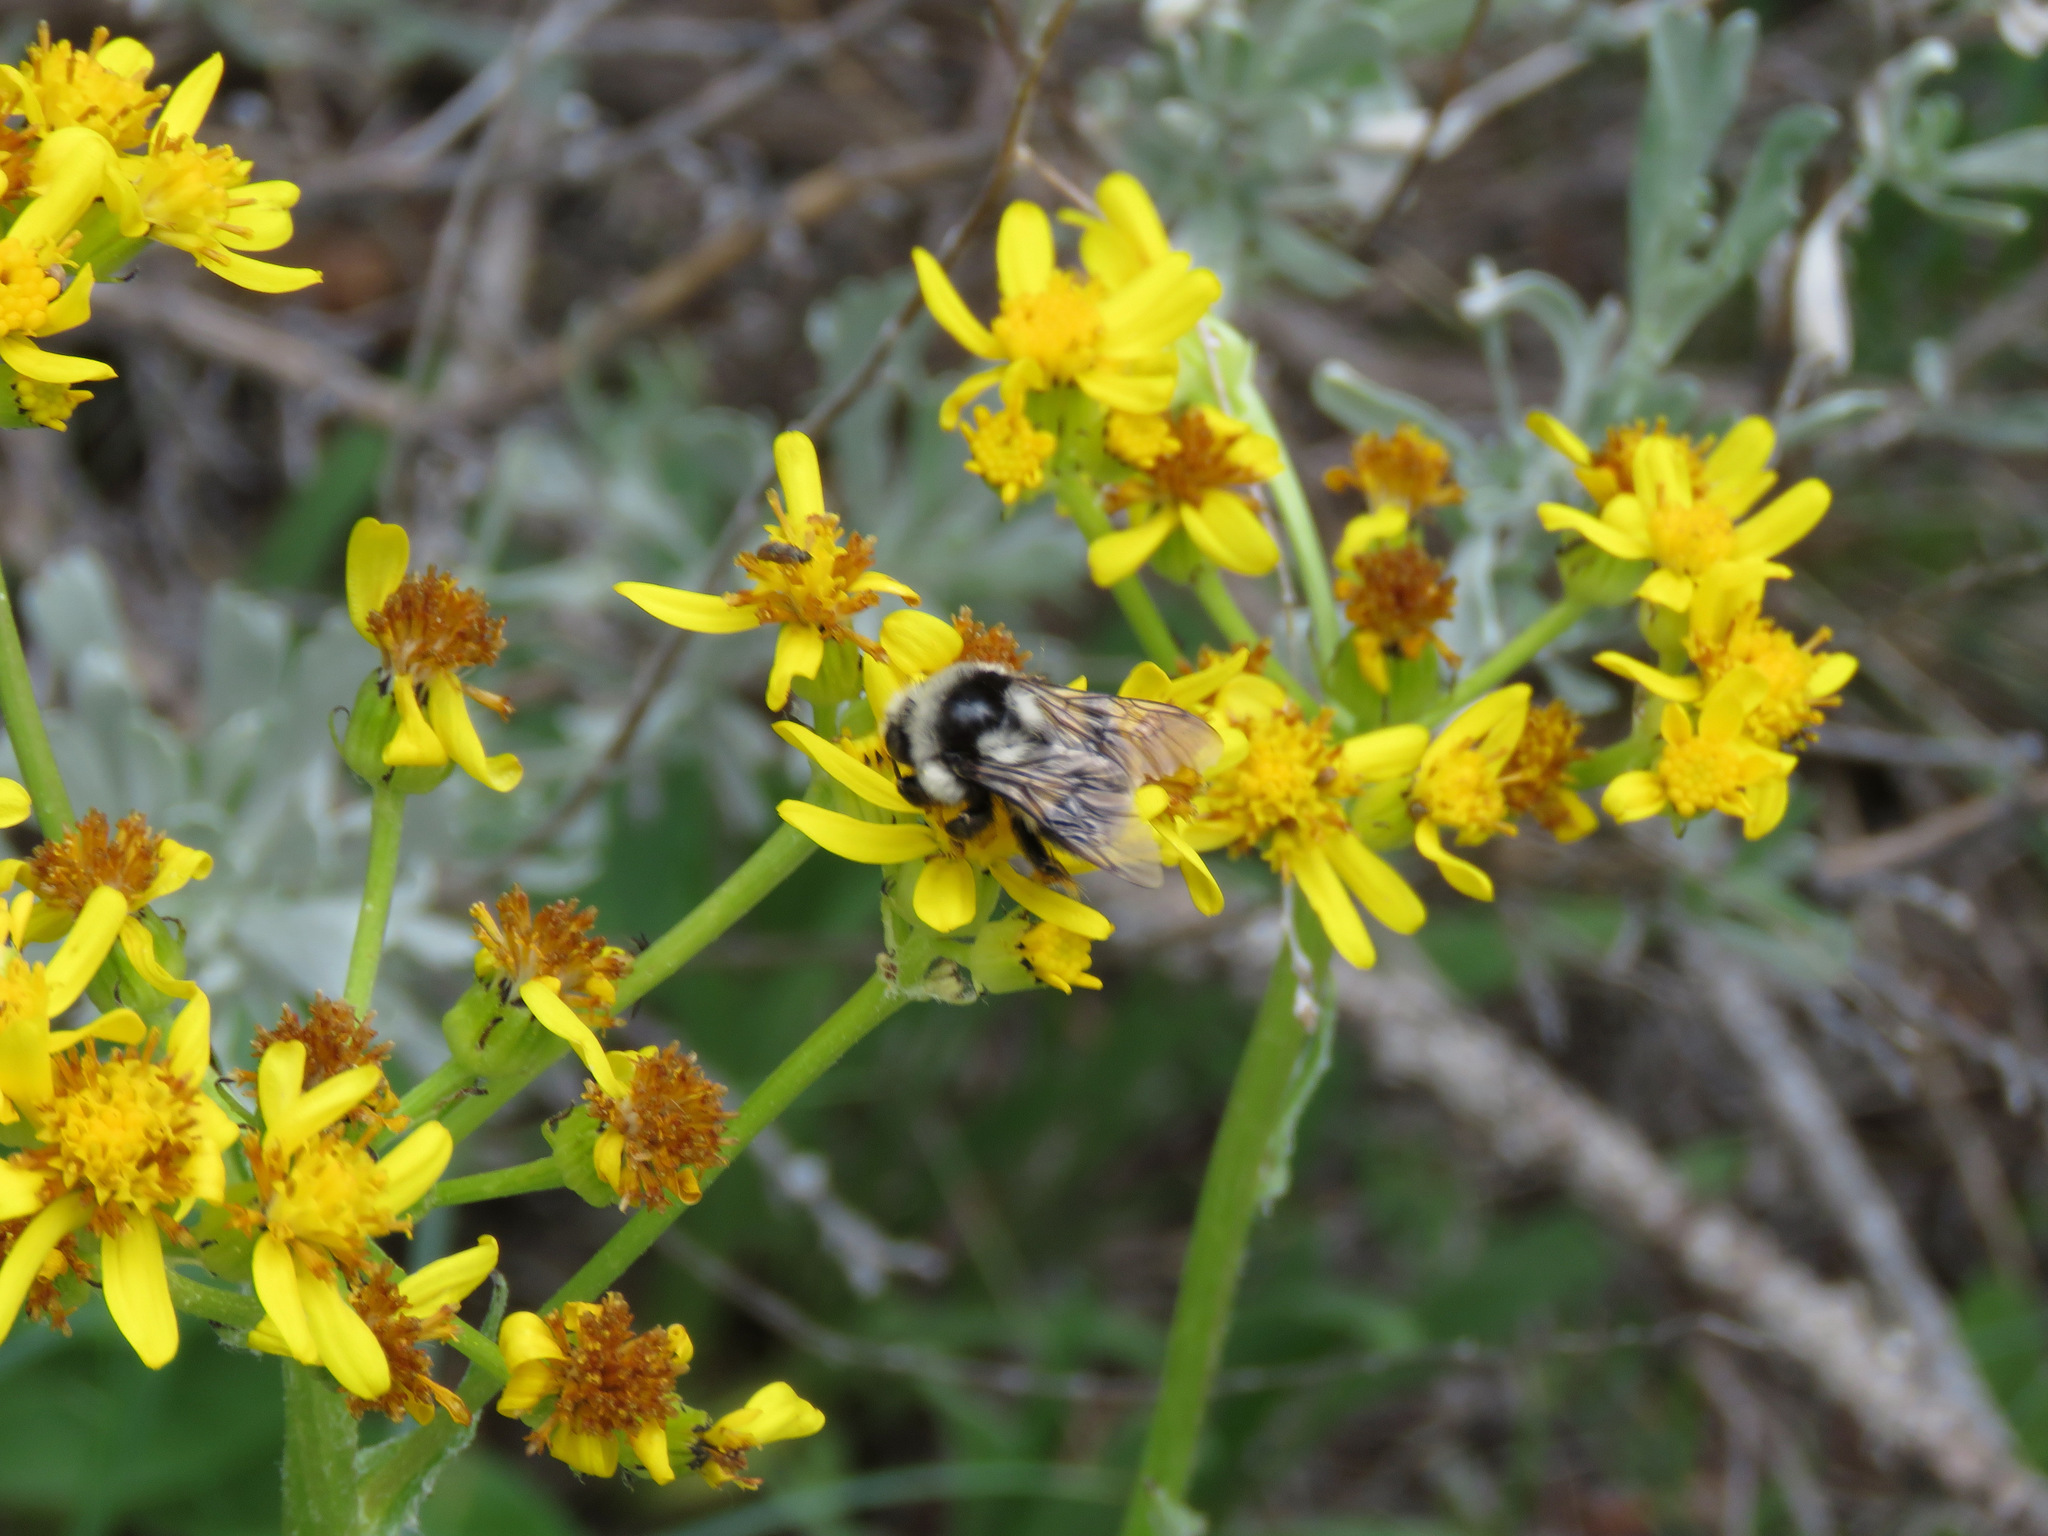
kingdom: Animalia
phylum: Arthropoda
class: Insecta
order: Hymenoptera
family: Apidae
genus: Bombus
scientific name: Bombus vancouverensis
